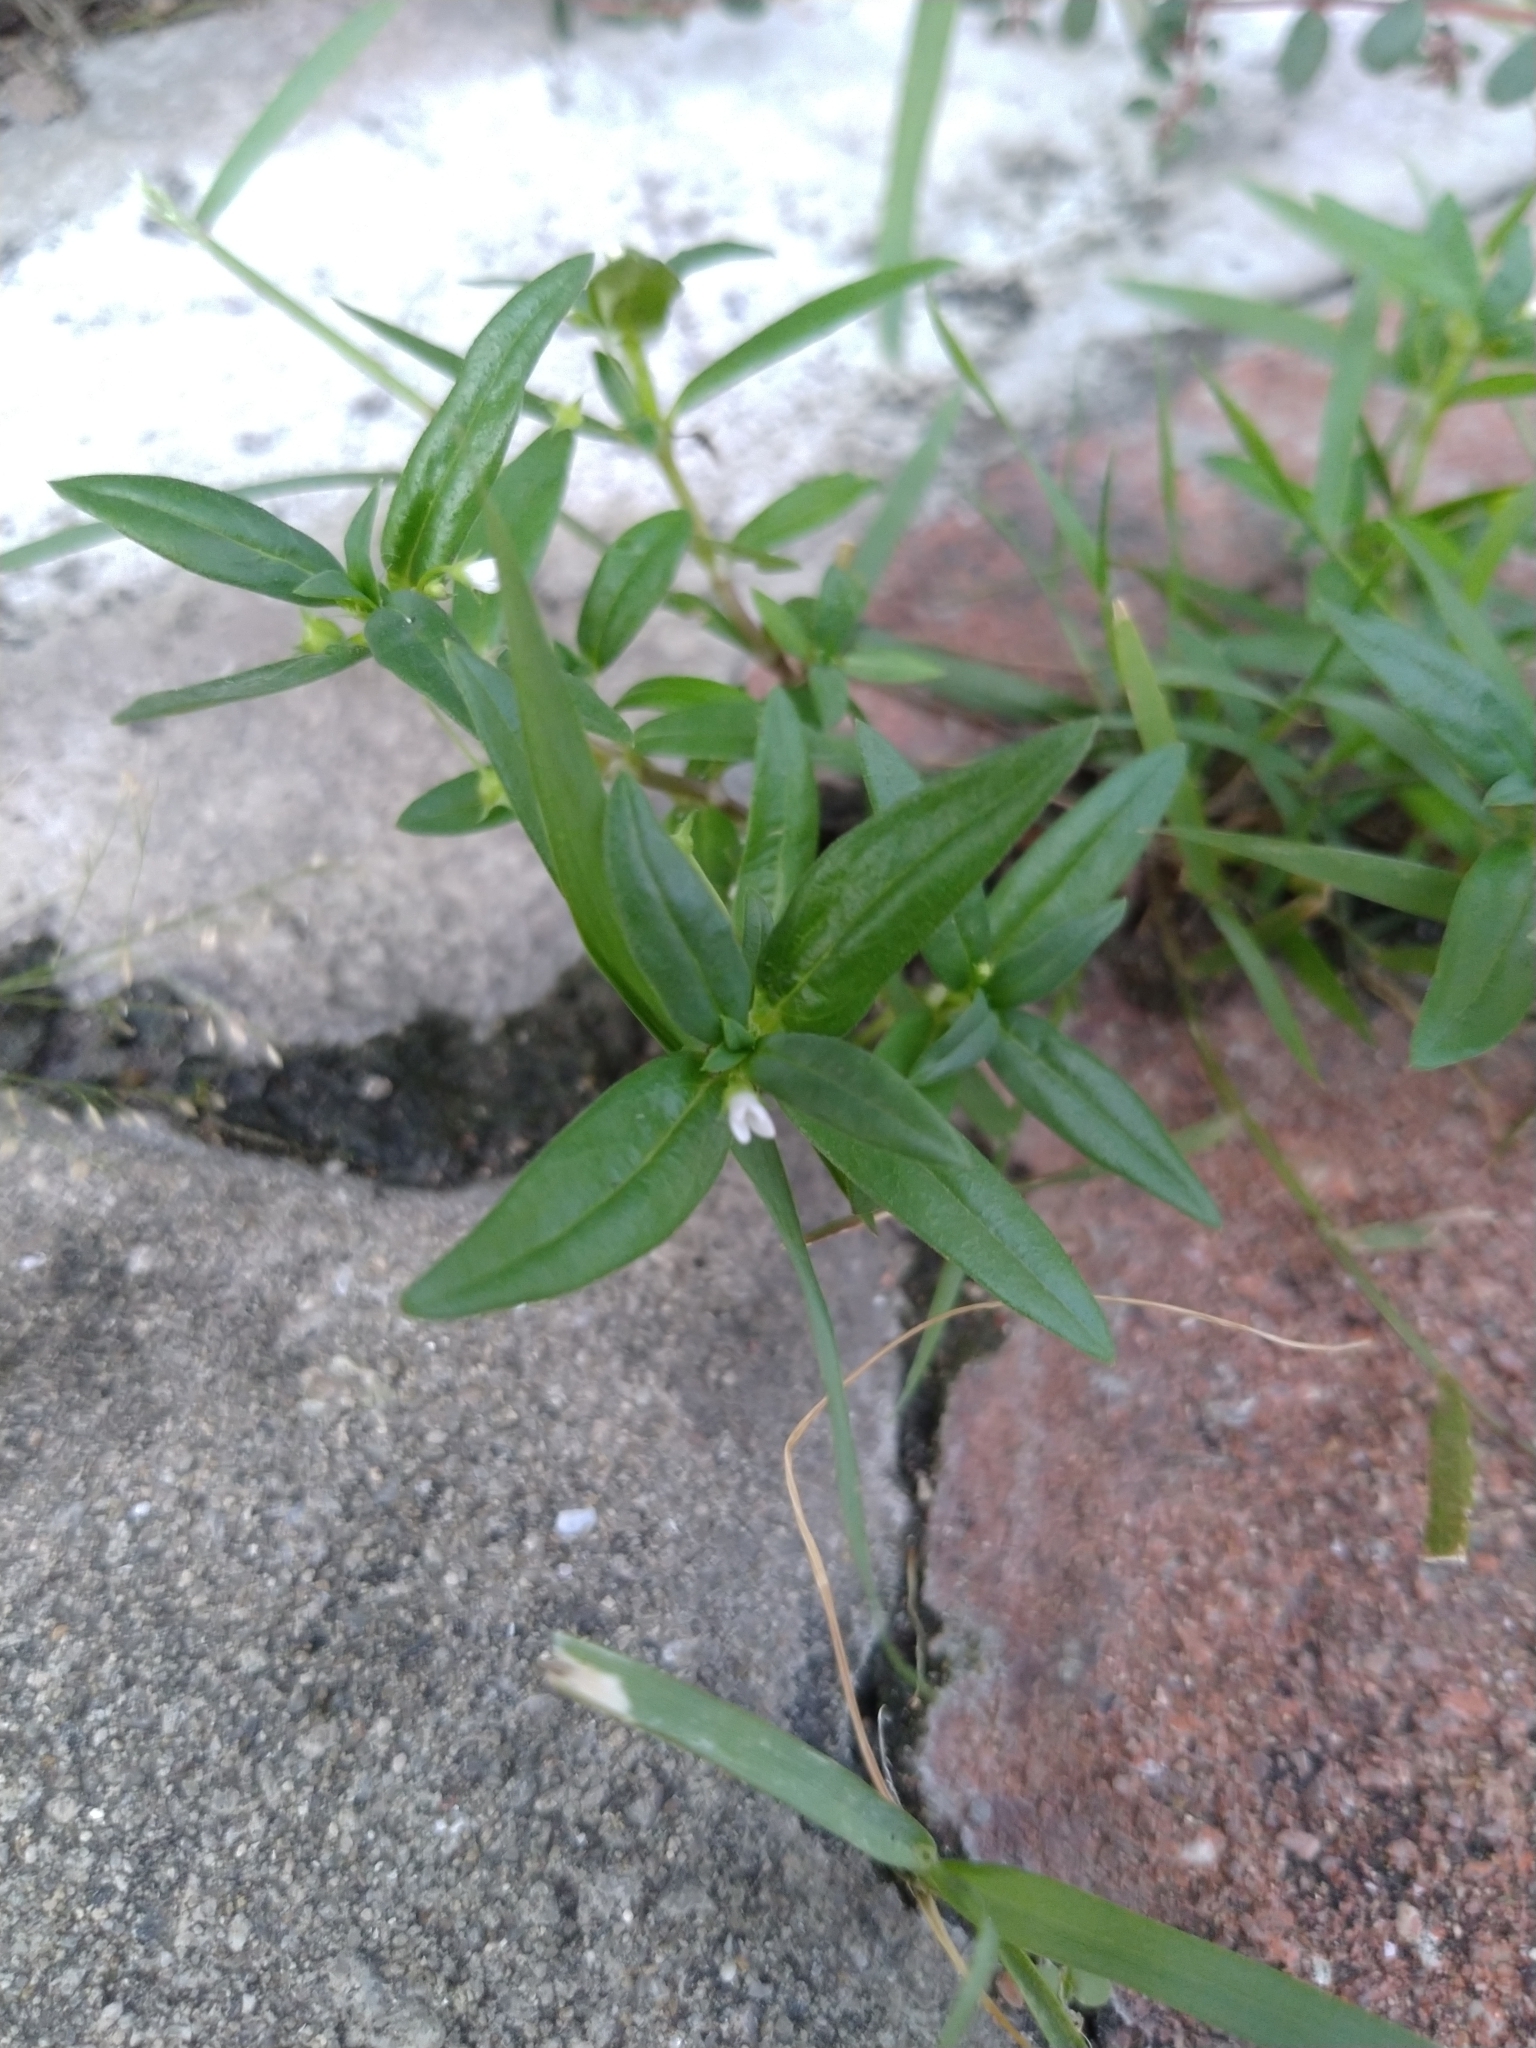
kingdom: Plantae
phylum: Tracheophyta
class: Magnoliopsida
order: Gentianales
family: Rubiaceae
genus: Oldenlandia
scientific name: Oldenlandia corymbosa
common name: Flat-top mille graines
